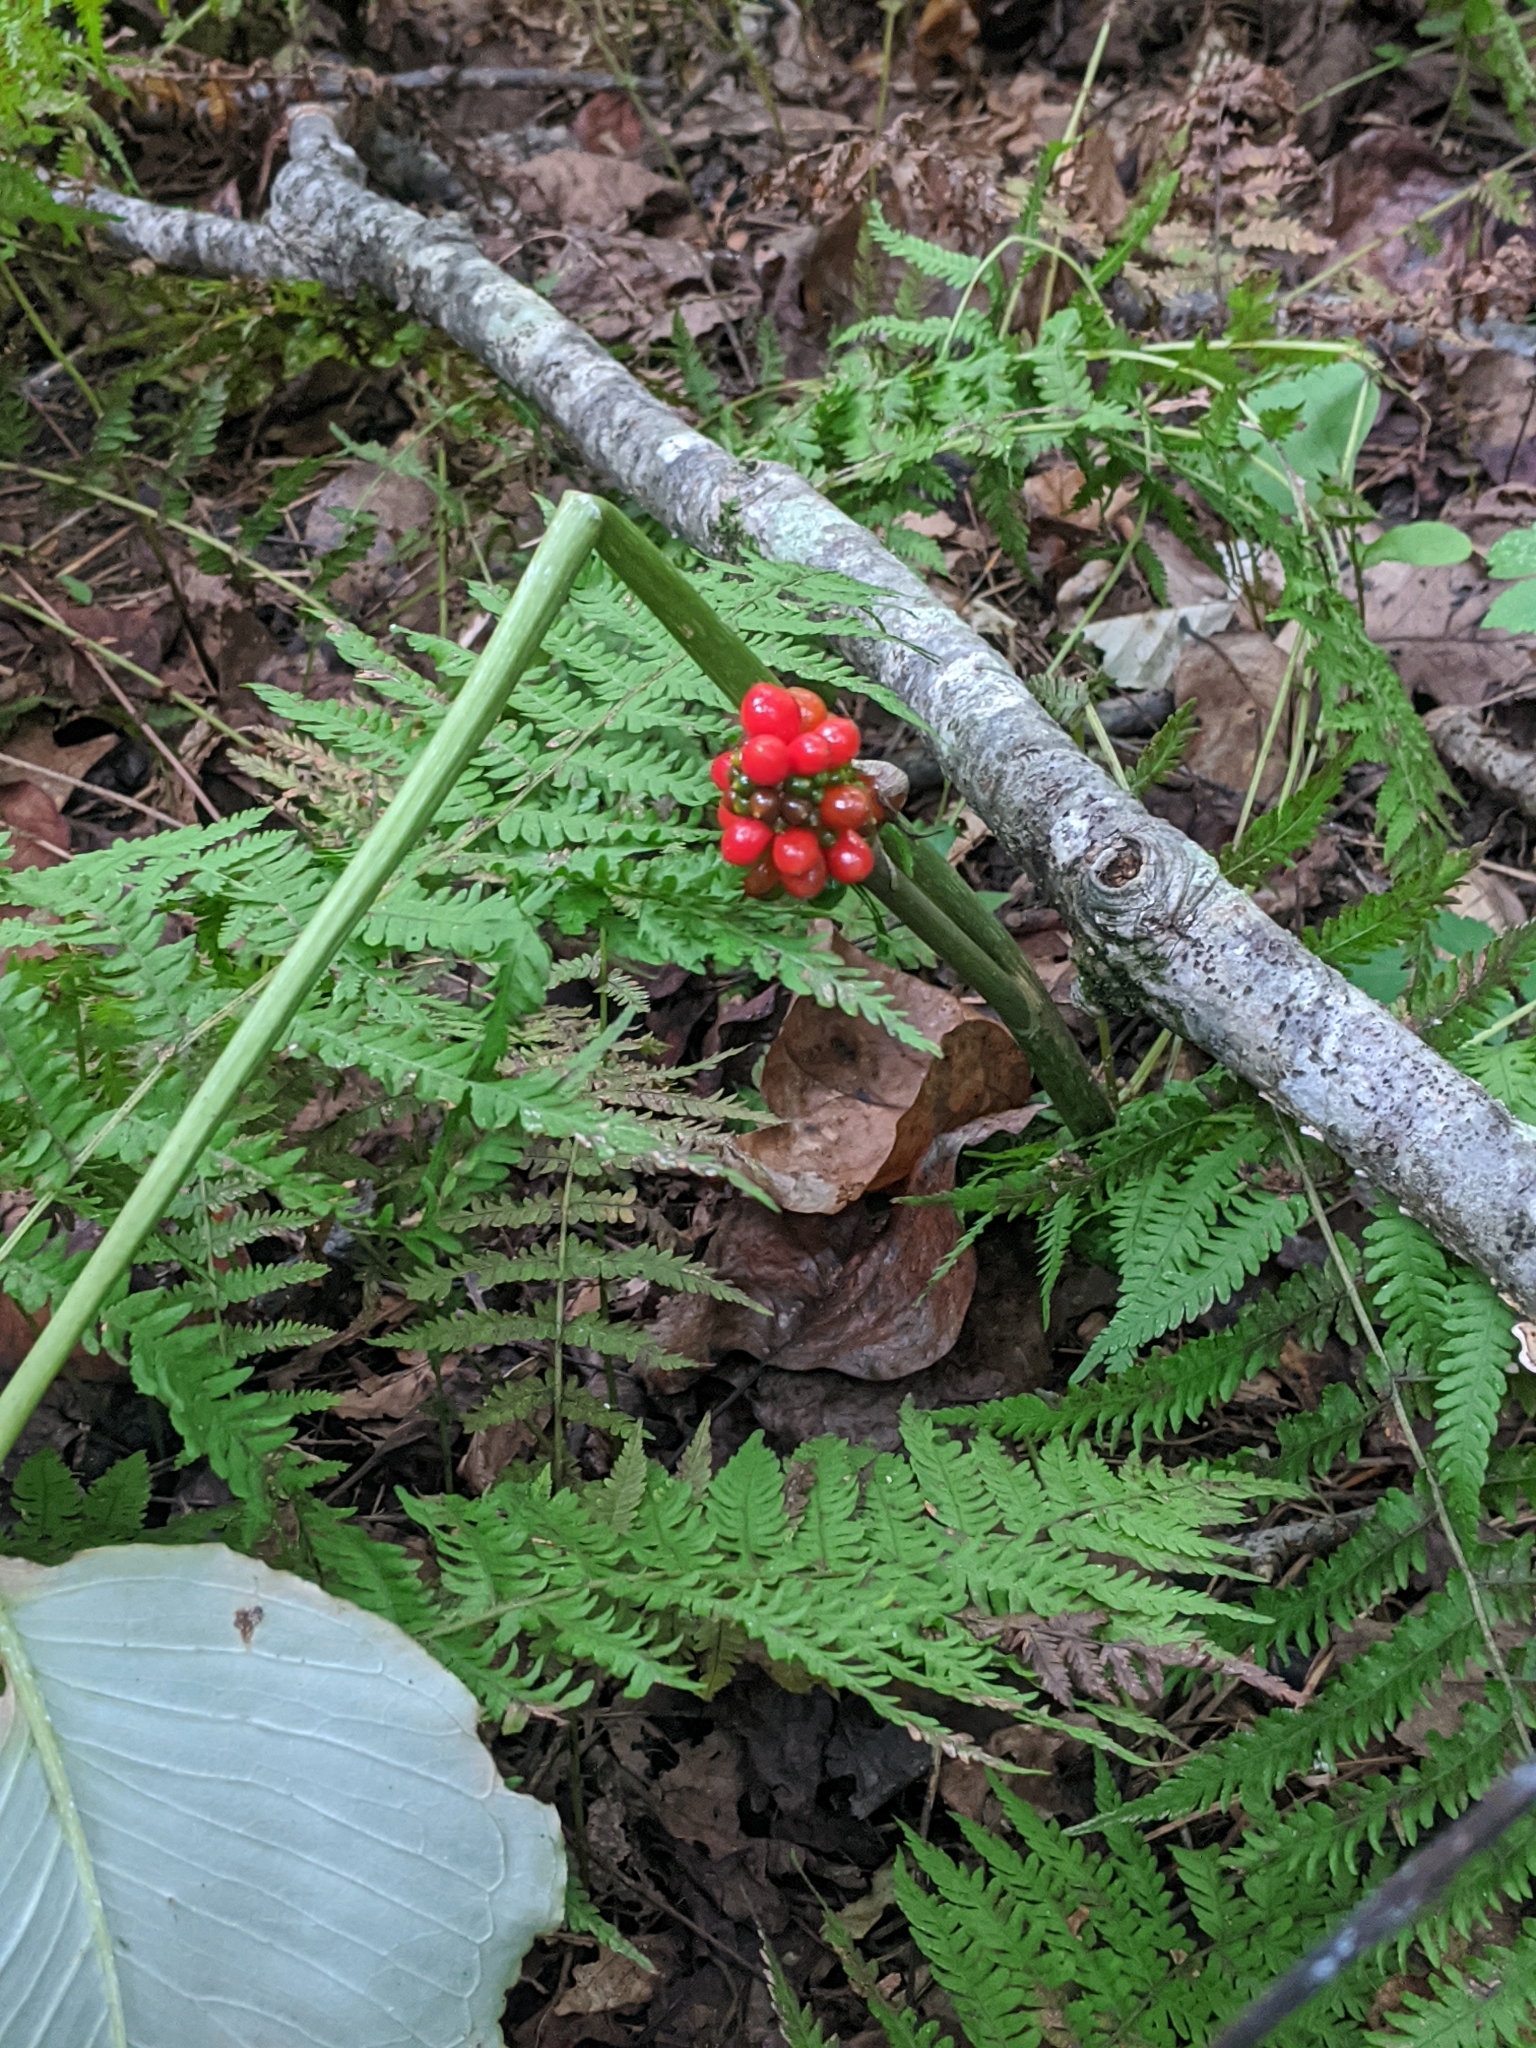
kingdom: Plantae
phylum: Tracheophyta
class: Liliopsida
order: Alismatales
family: Araceae
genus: Arisaema
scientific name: Arisaema triphyllum
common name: Jack-in-the-pulpit
